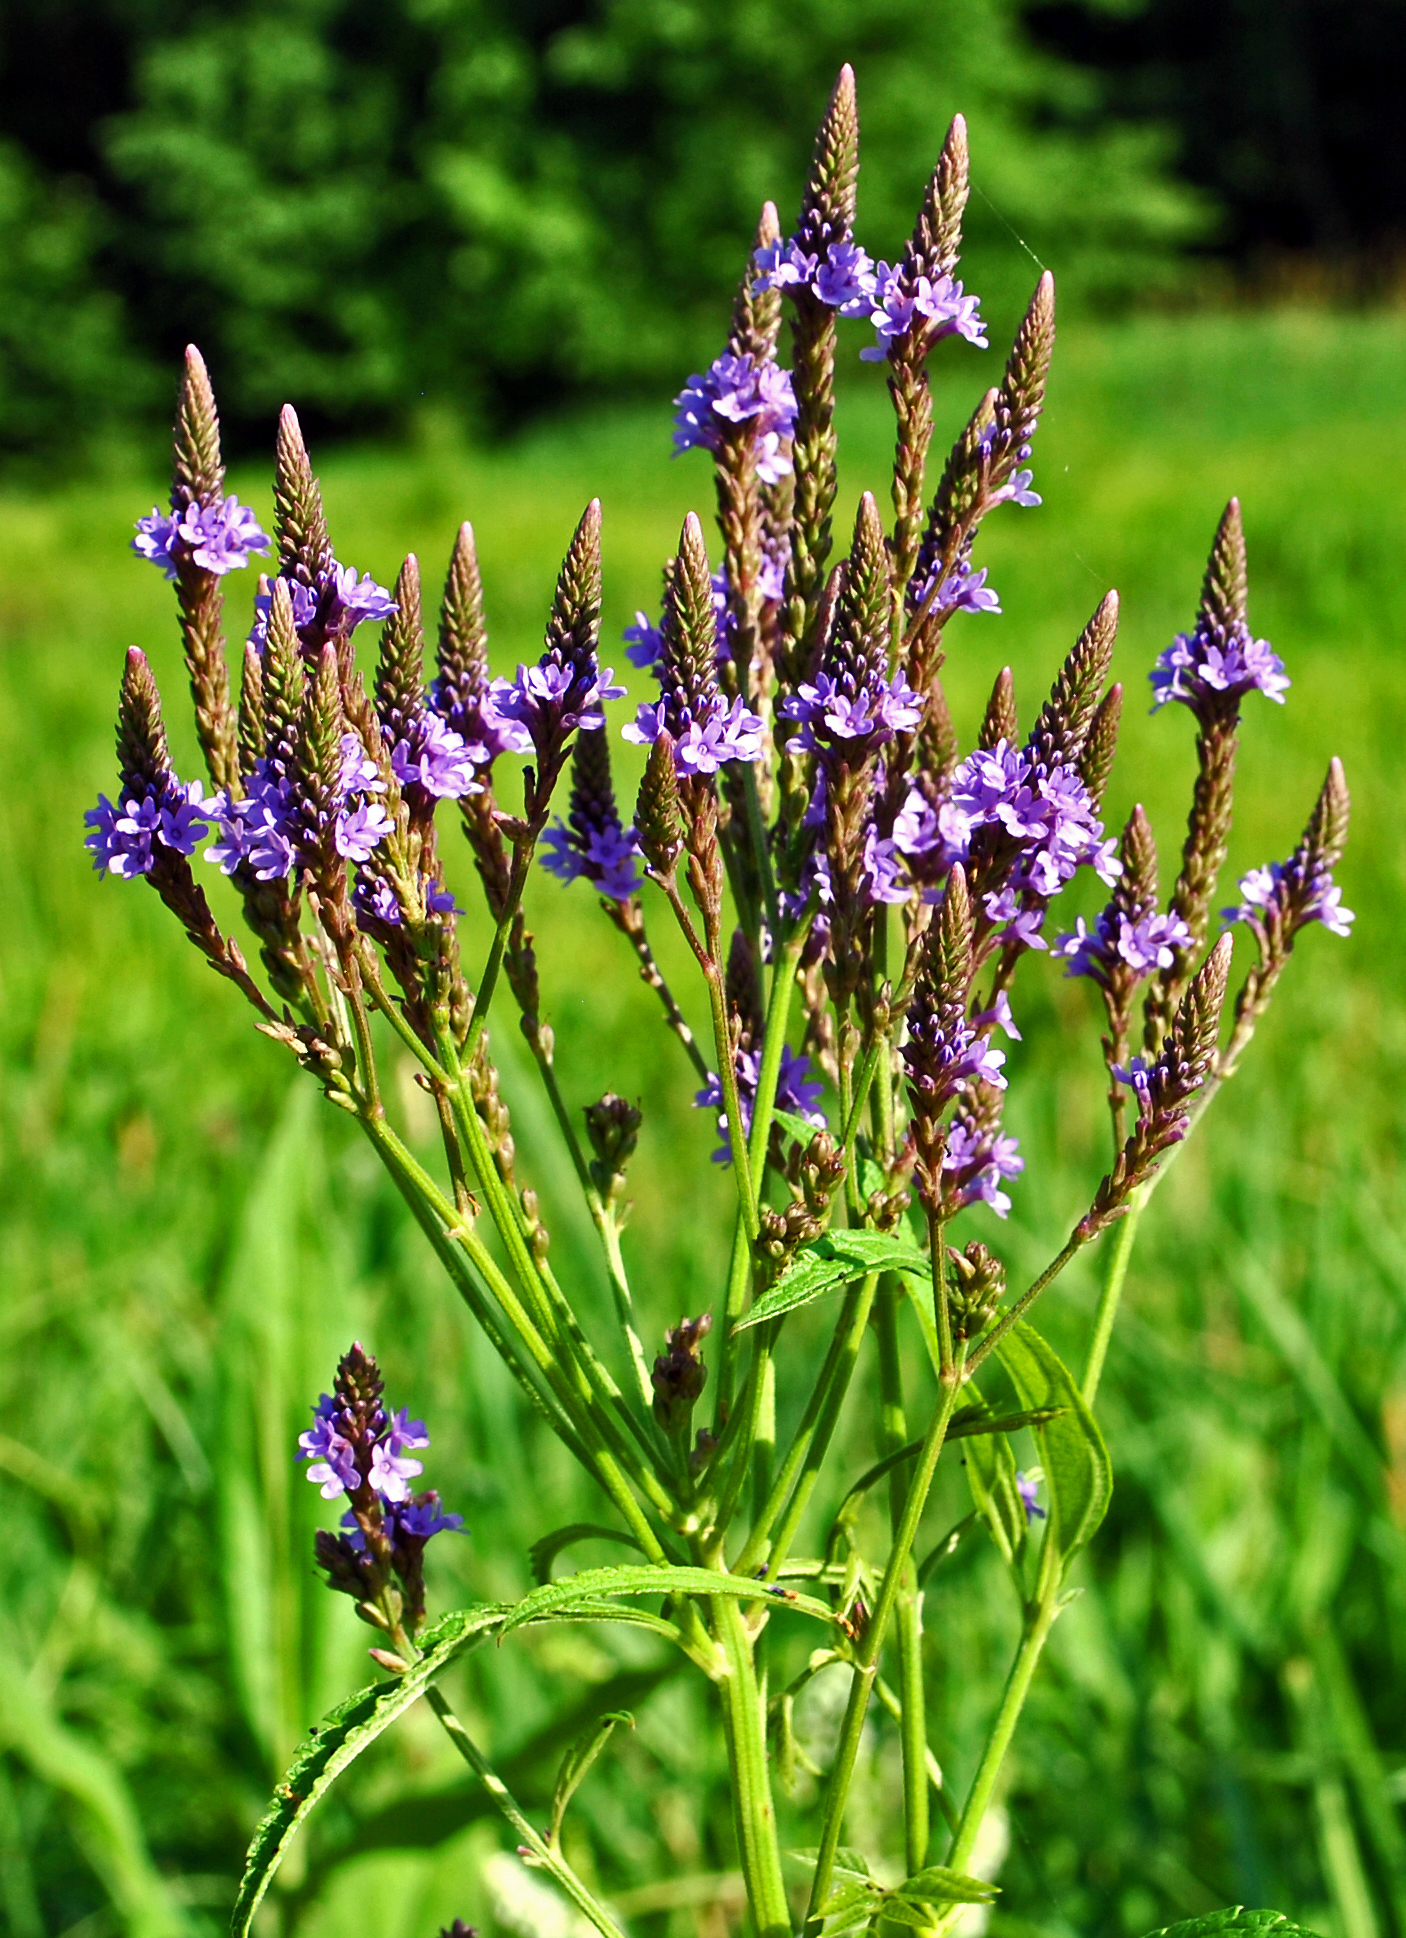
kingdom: Plantae
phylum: Tracheophyta
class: Magnoliopsida
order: Lamiales
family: Verbenaceae
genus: Verbena
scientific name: Verbena hastata
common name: American blue vervain
